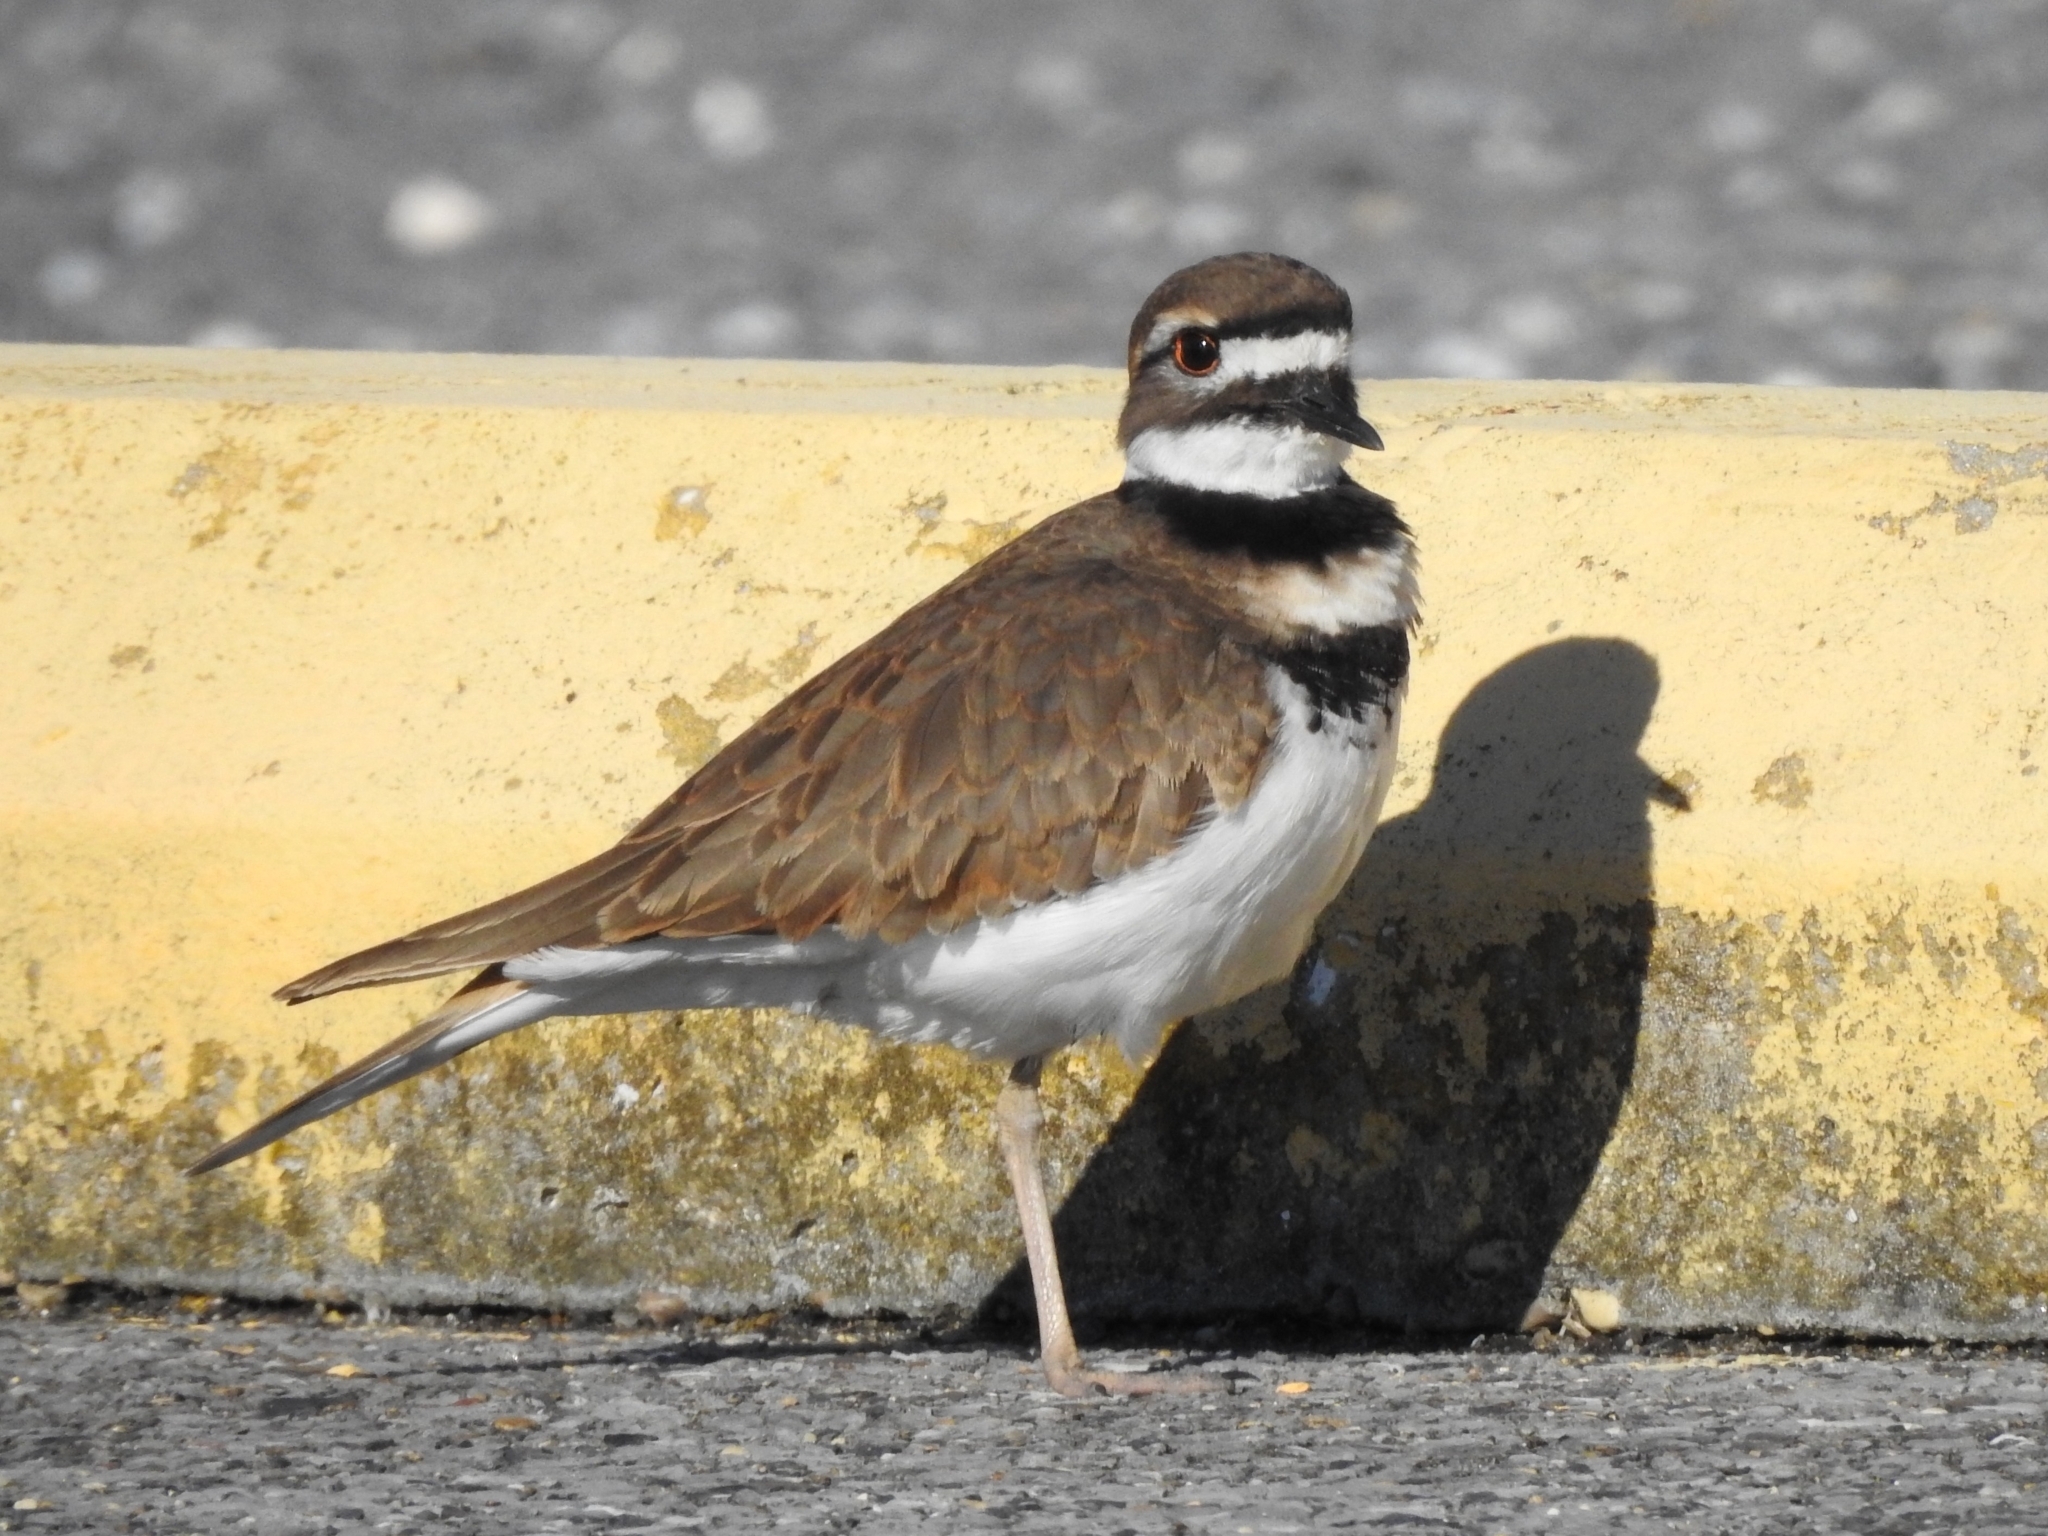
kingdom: Animalia
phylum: Chordata
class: Aves
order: Charadriiformes
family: Charadriidae
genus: Charadrius
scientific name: Charadrius vociferus
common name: Killdeer
